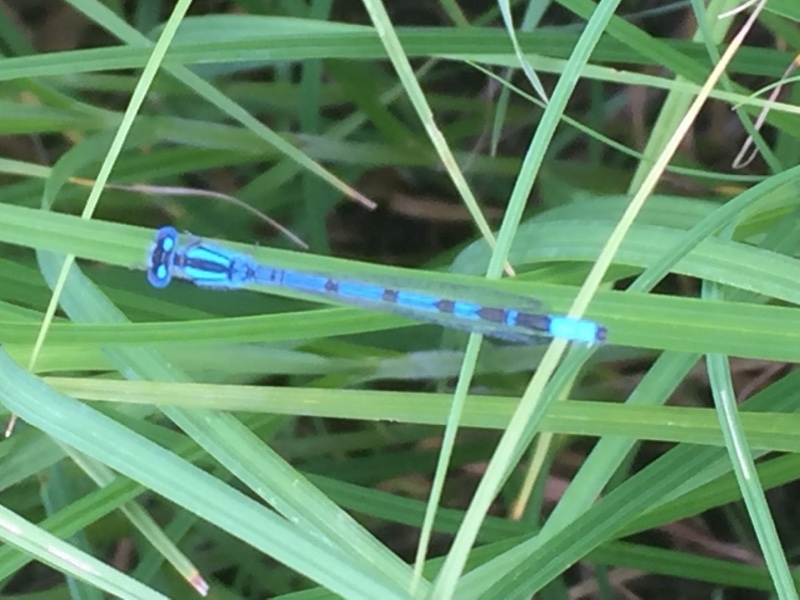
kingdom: Animalia
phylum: Arthropoda
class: Insecta
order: Odonata
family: Coenagrionidae
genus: Enallagma
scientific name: Enallagma cyathigerum
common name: Common blue damselfly
